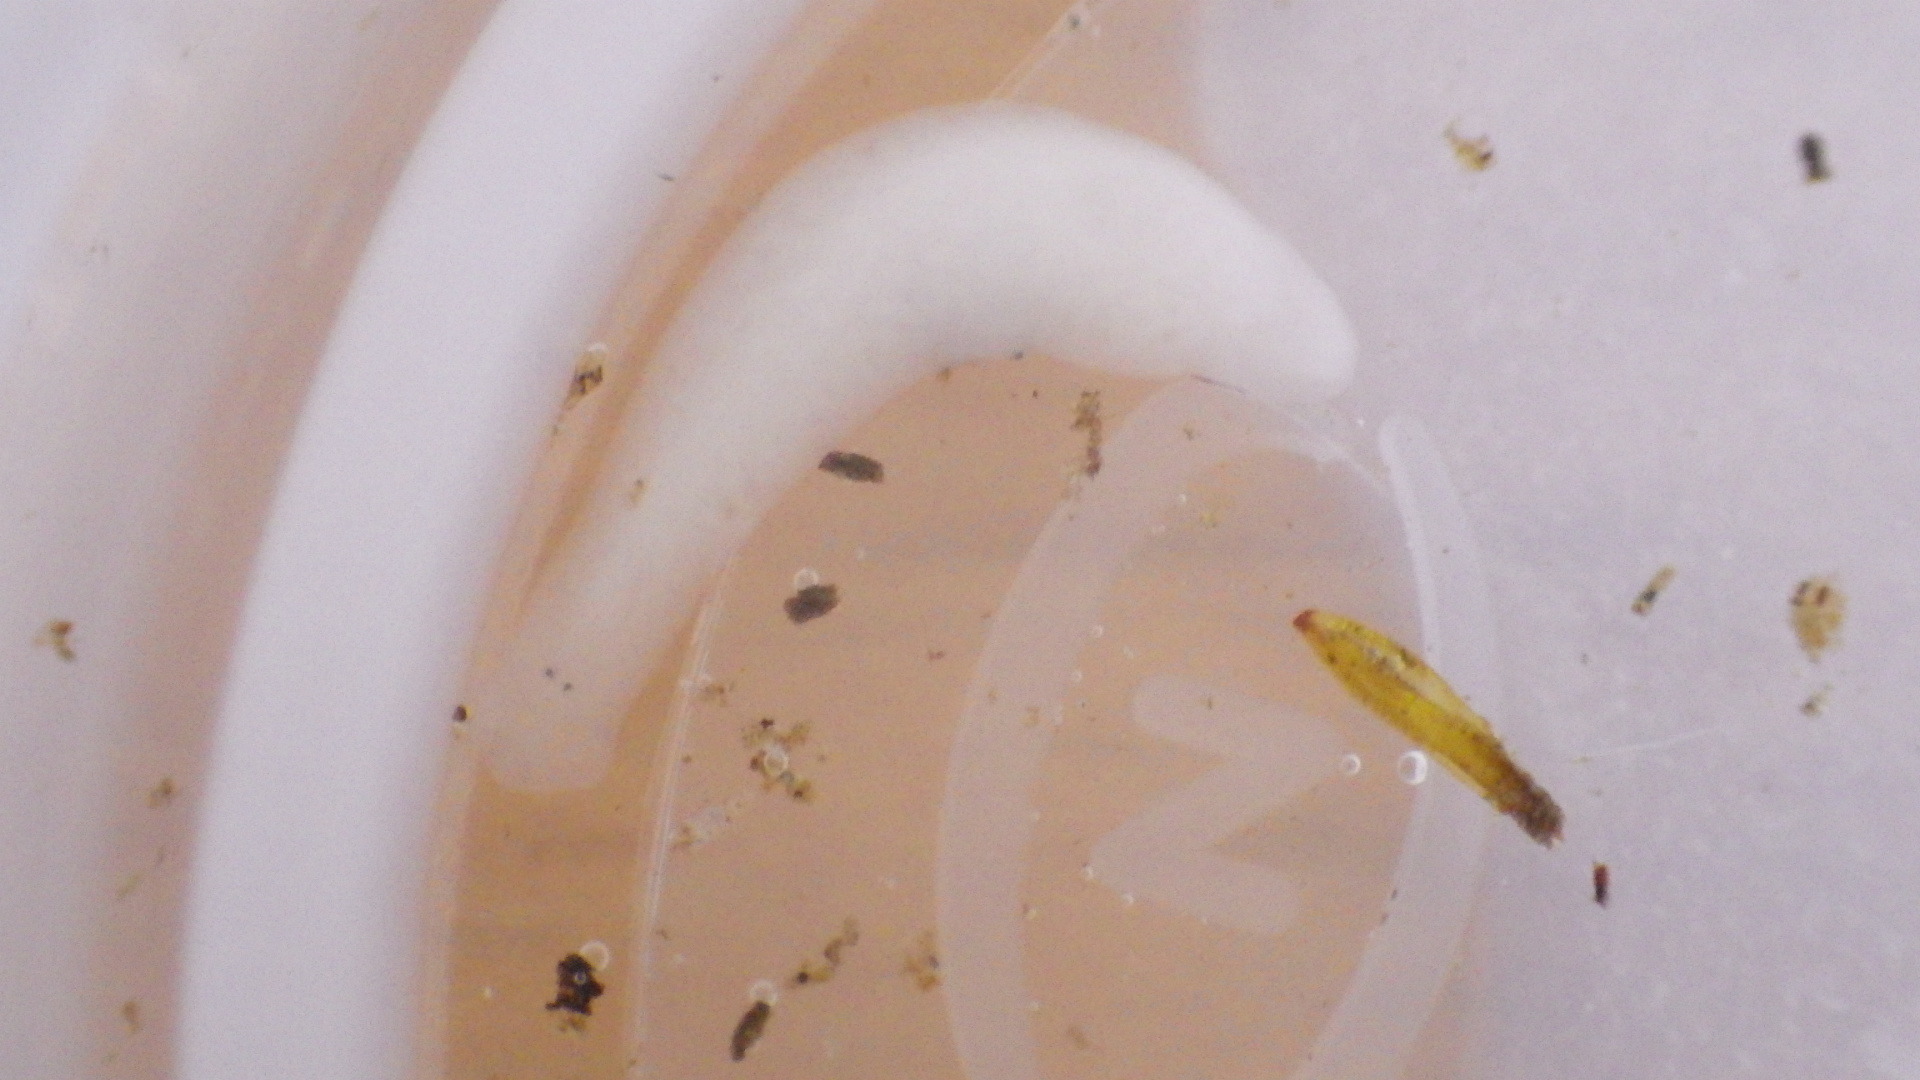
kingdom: Animalia
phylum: Platyhelminthes
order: Tricladida
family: Planariidae
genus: Phagocata
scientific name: Phagocata morgani
